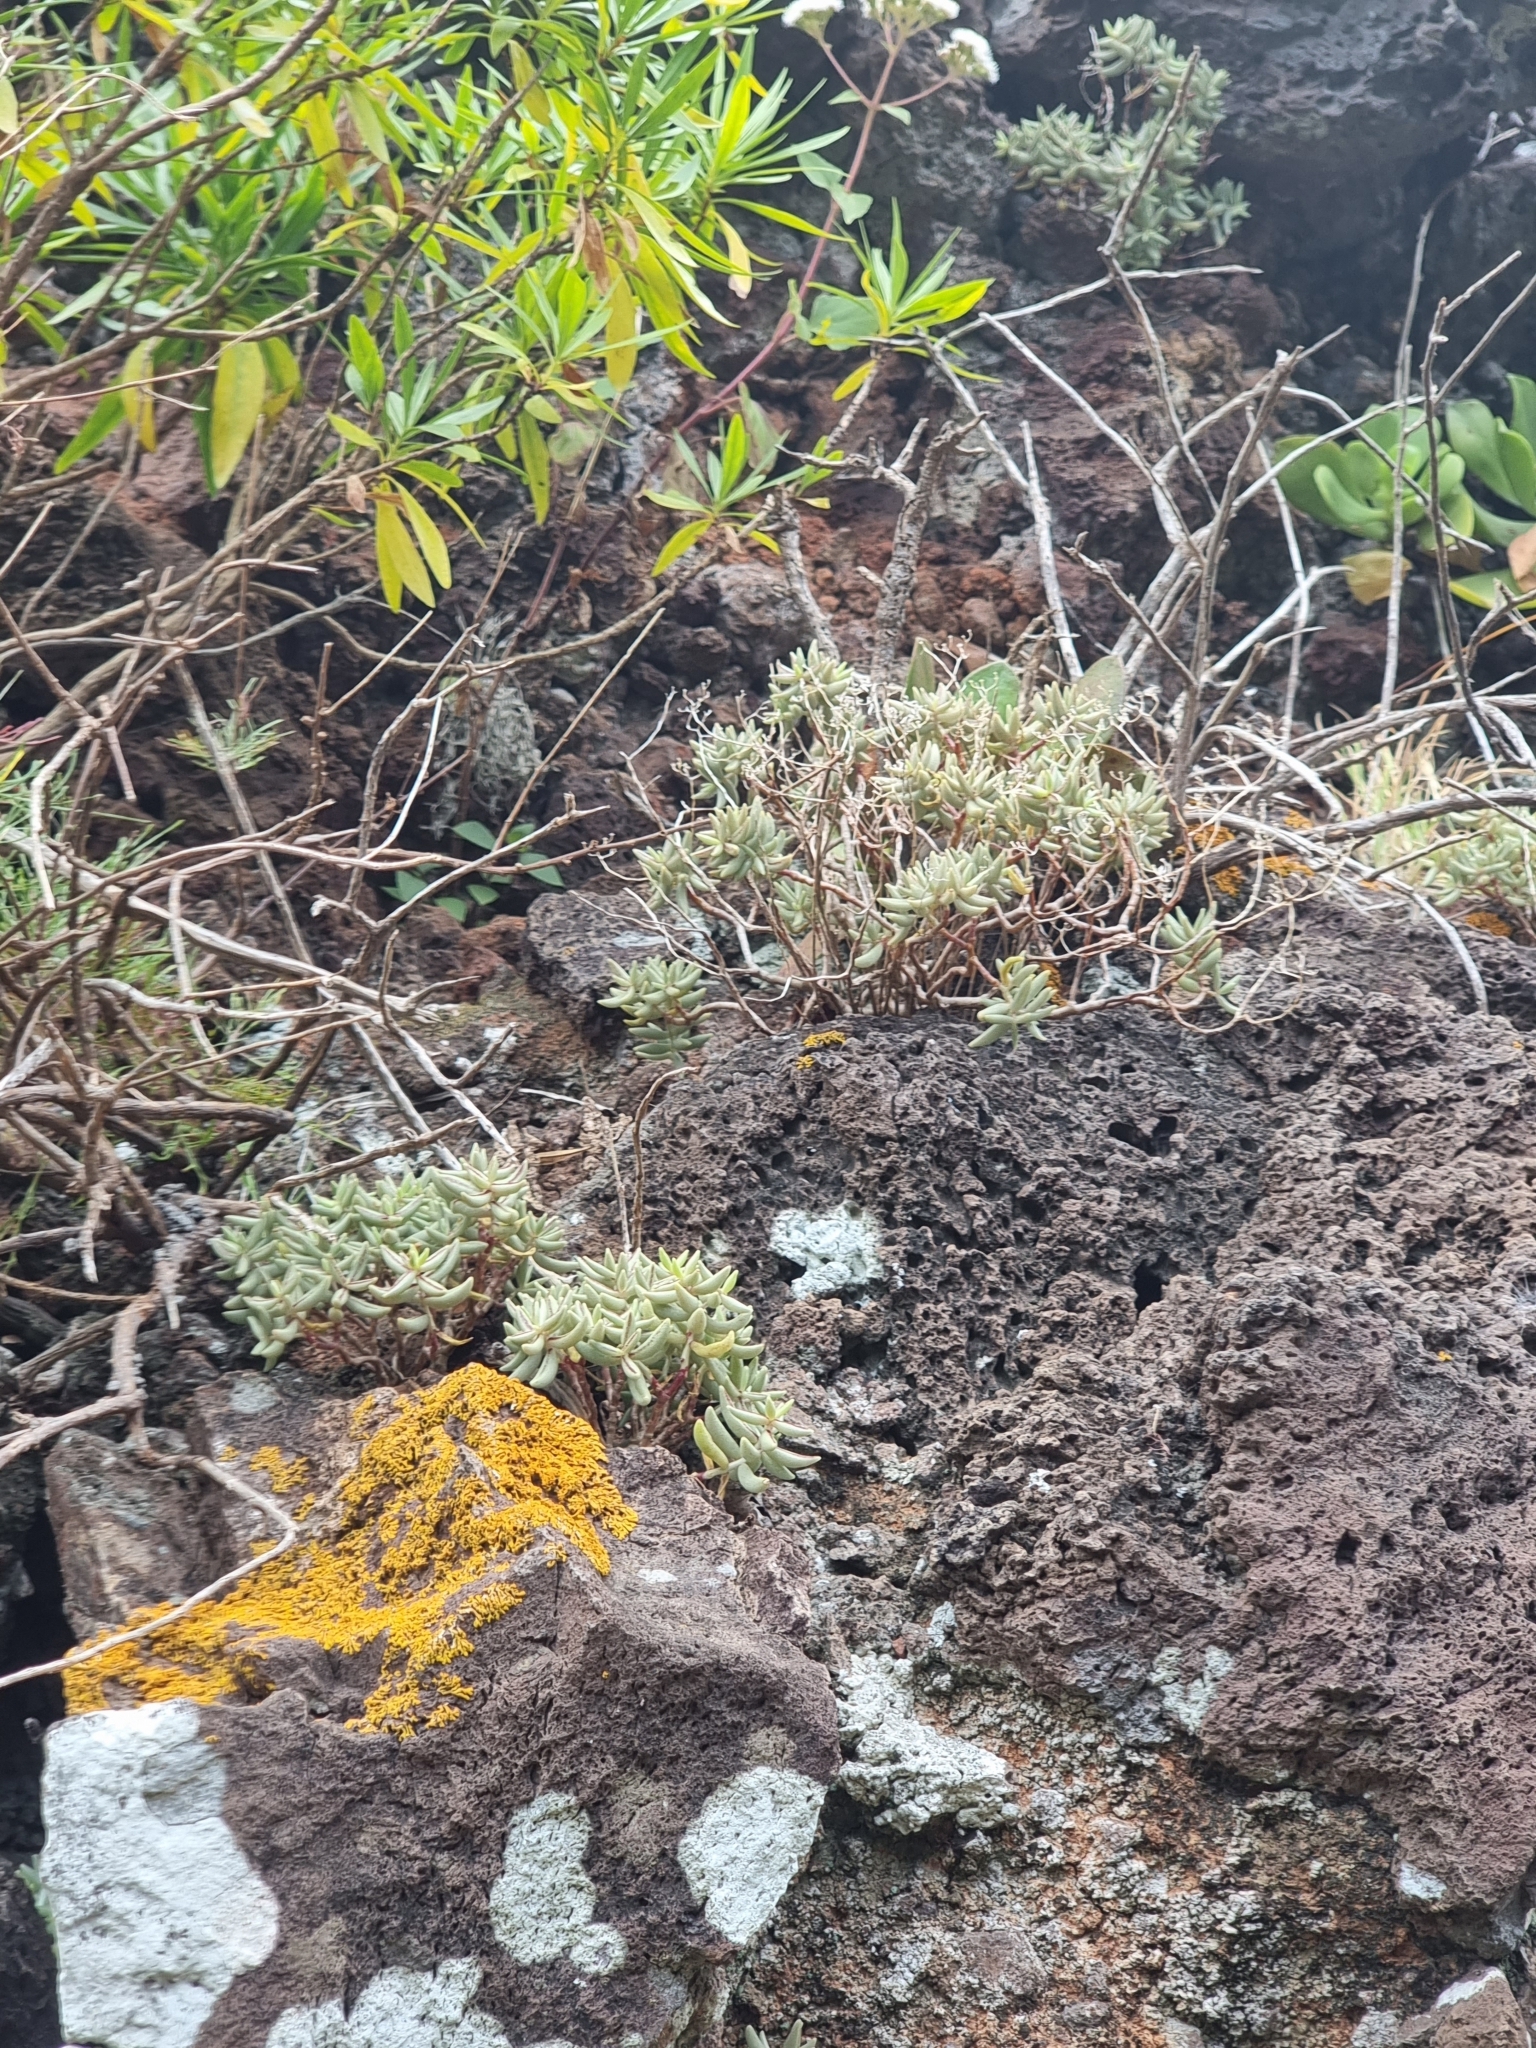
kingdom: Plantae
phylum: Tracheophyta
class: Magnoliopsida
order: Saxifragales
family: Crassulaceae
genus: Sedum
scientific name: Sedum fusiforme
